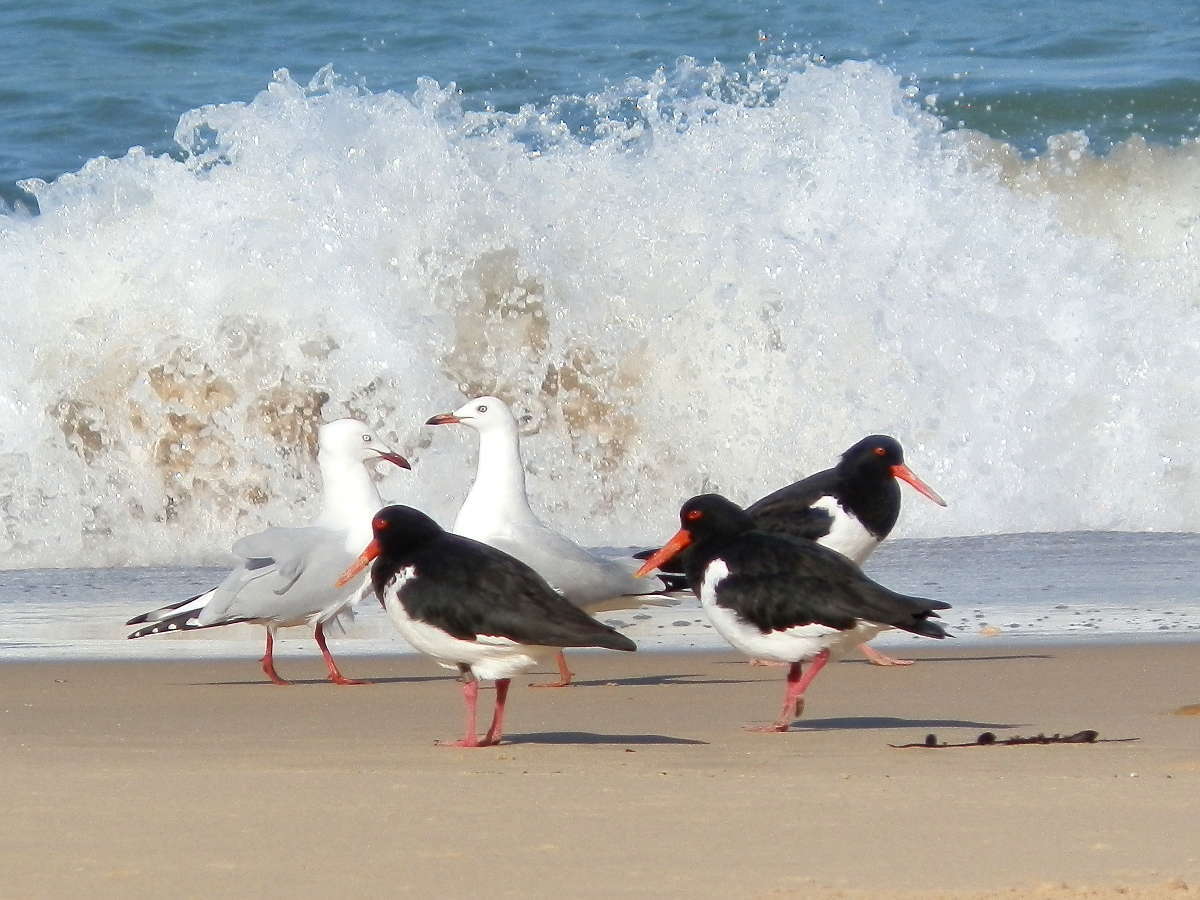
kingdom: Animalia
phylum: Chordata
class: Aves
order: Charadriiformes
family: Haematopodidae
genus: Haematopus
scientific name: Haematopus longirostris
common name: Pied oystercatcher
